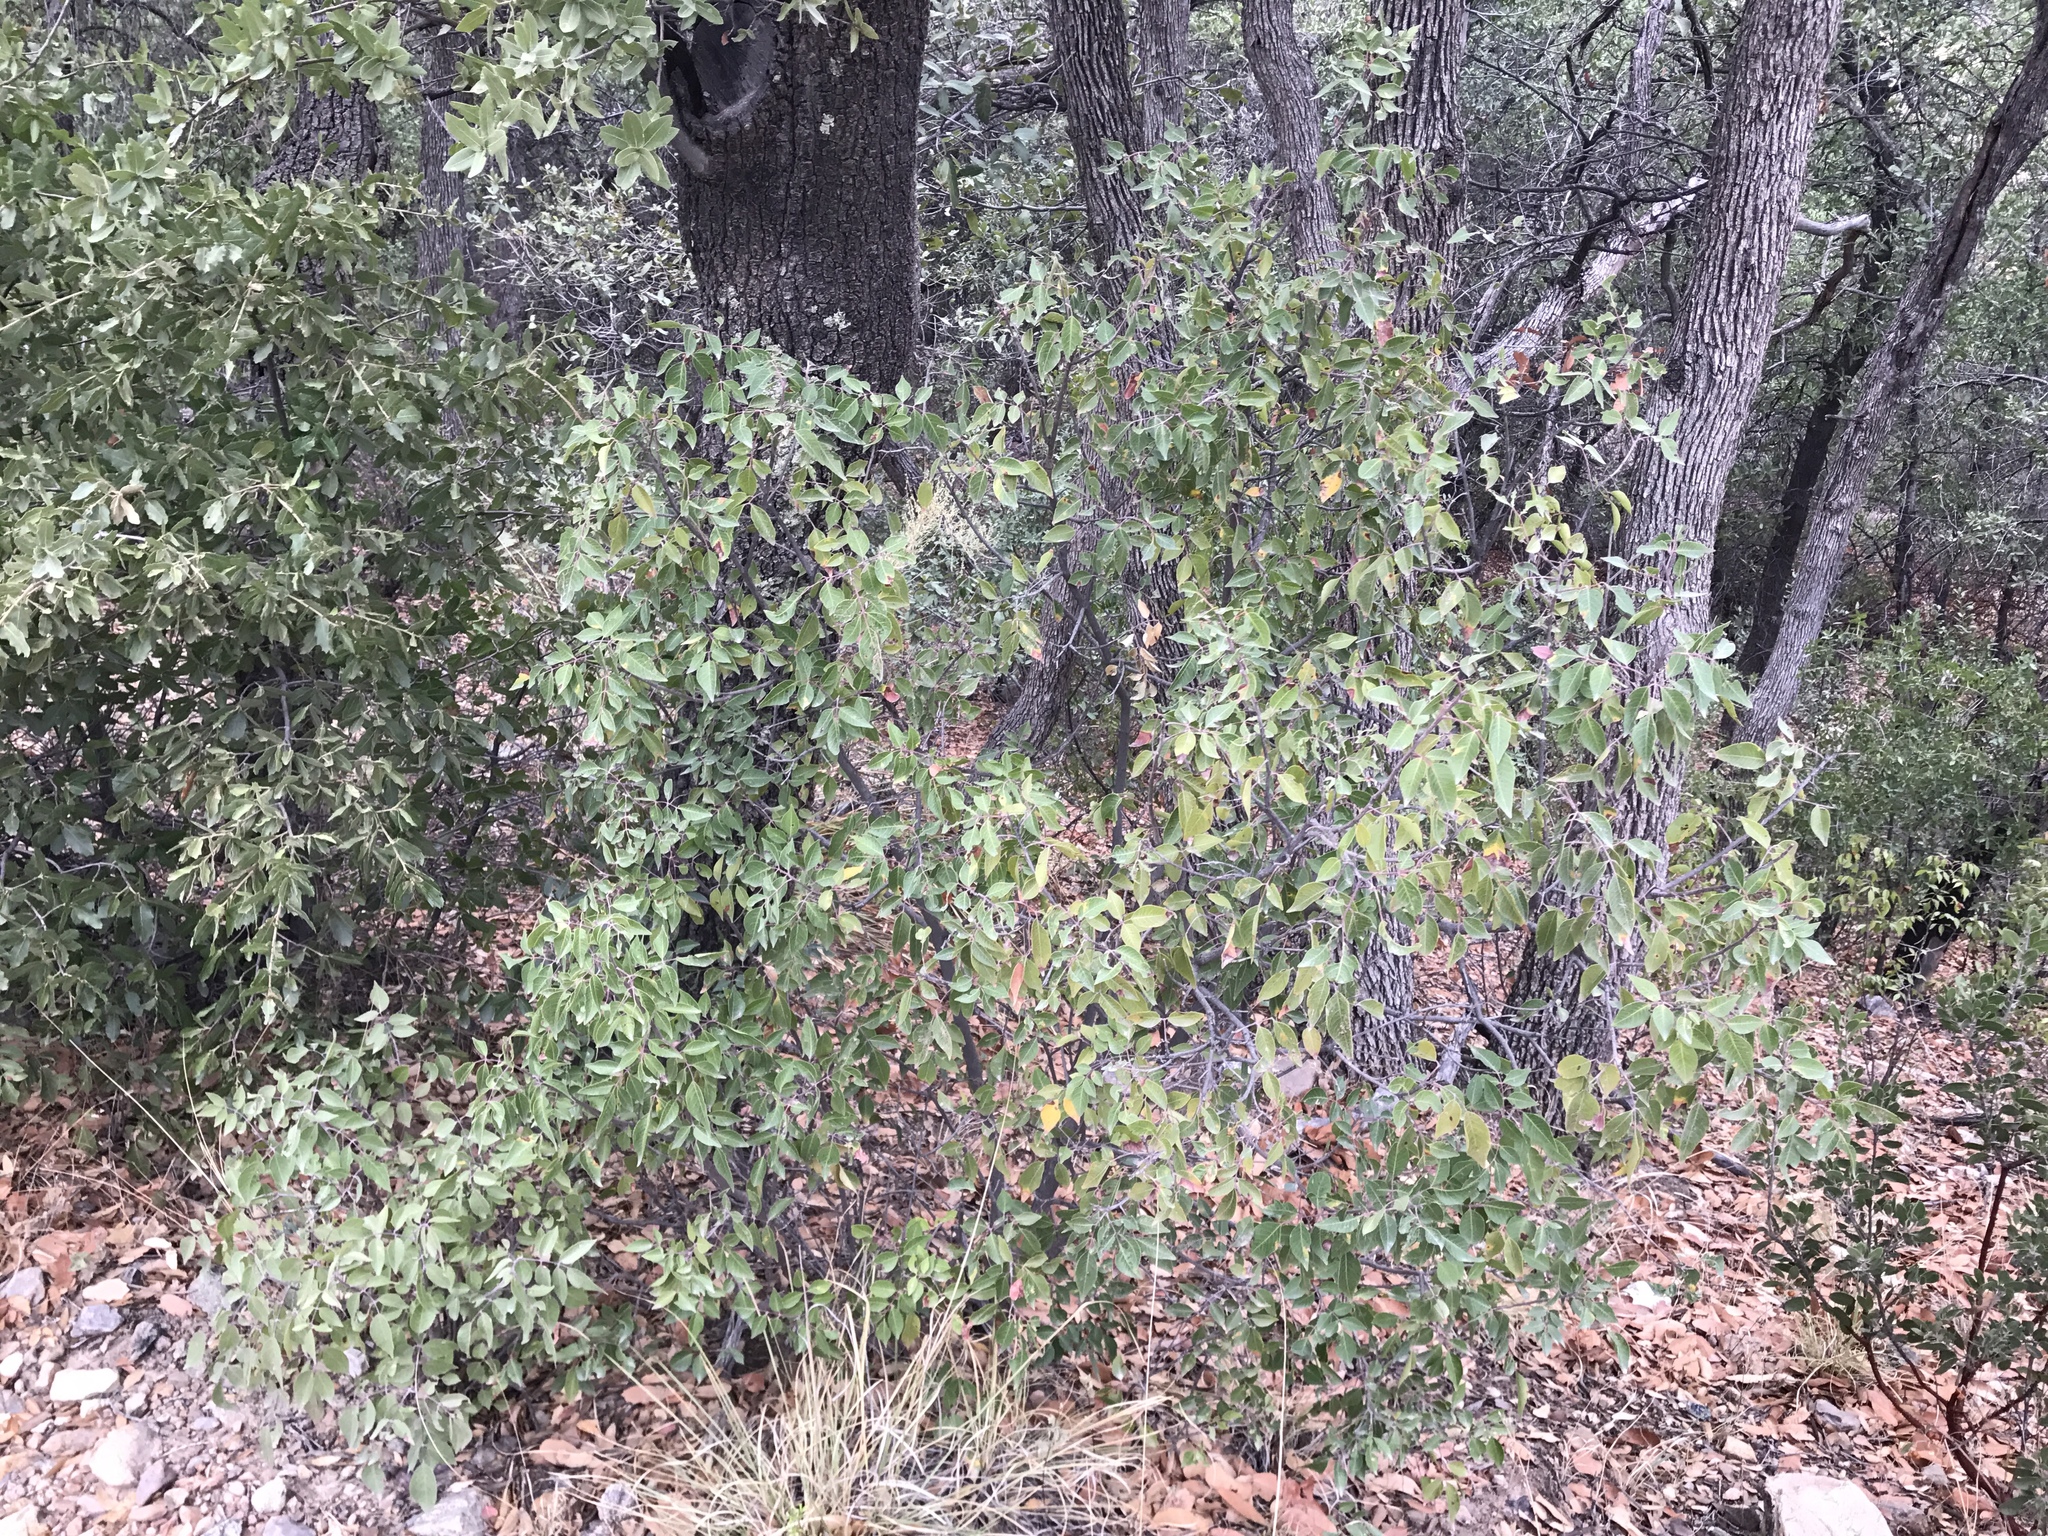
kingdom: Plantae
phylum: Tracheophyta
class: Magnoliopsida
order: Sapindales
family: Anacardiaceae
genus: Rhus
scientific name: Rhus virens
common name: Evergreen sumac
